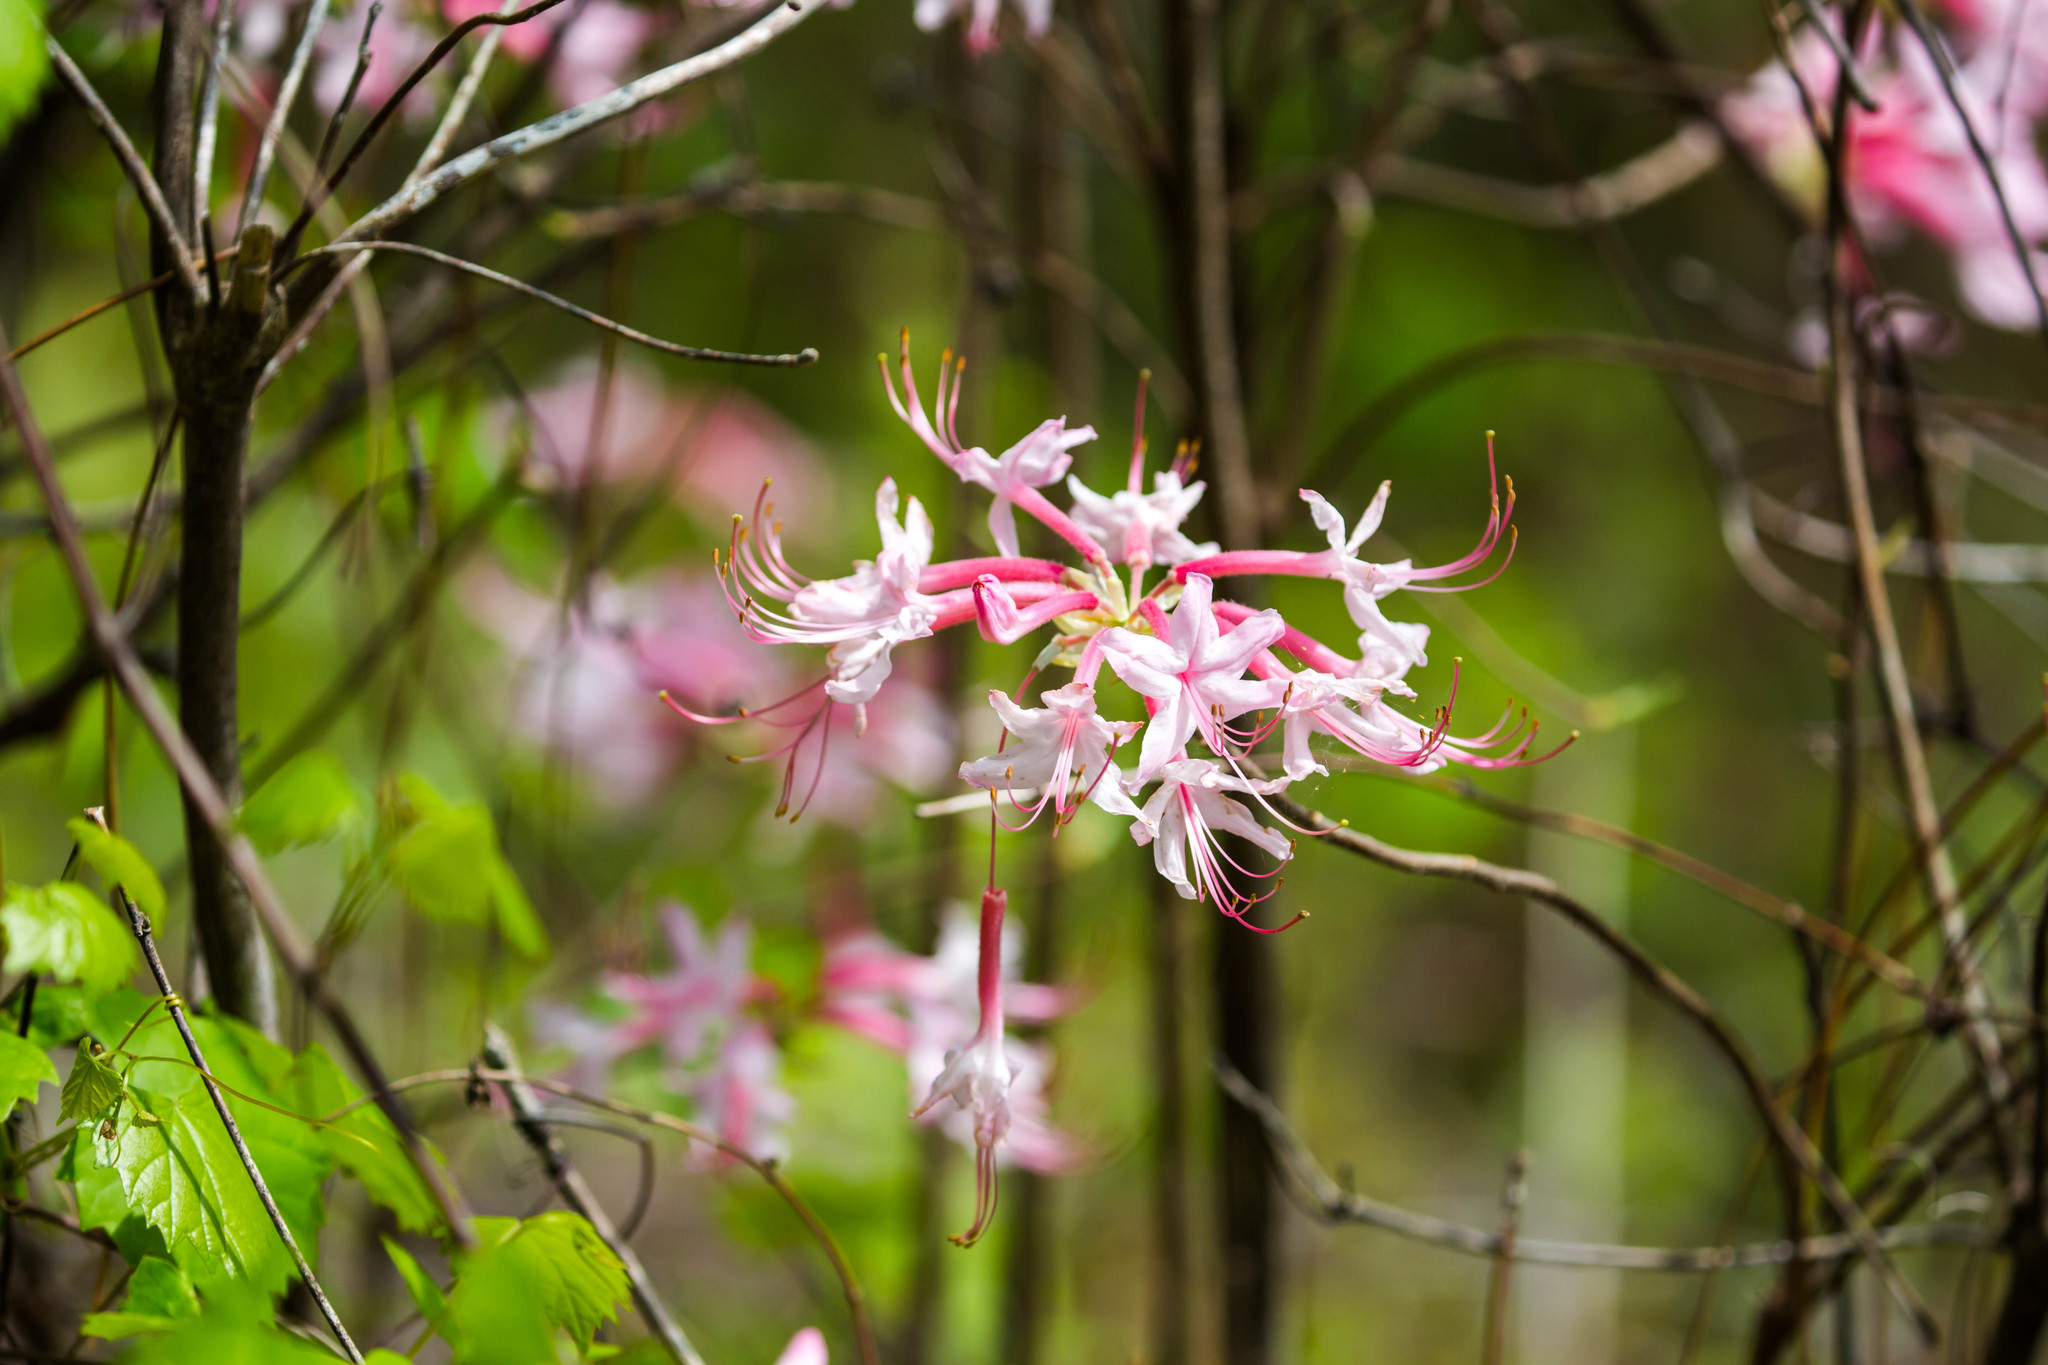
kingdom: Plantae
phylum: Tracheophyta
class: Magnoliopsida
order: Ericales
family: Ericaceae
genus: Rhododendron
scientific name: Rhododendron canescens
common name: Mountain azalea
